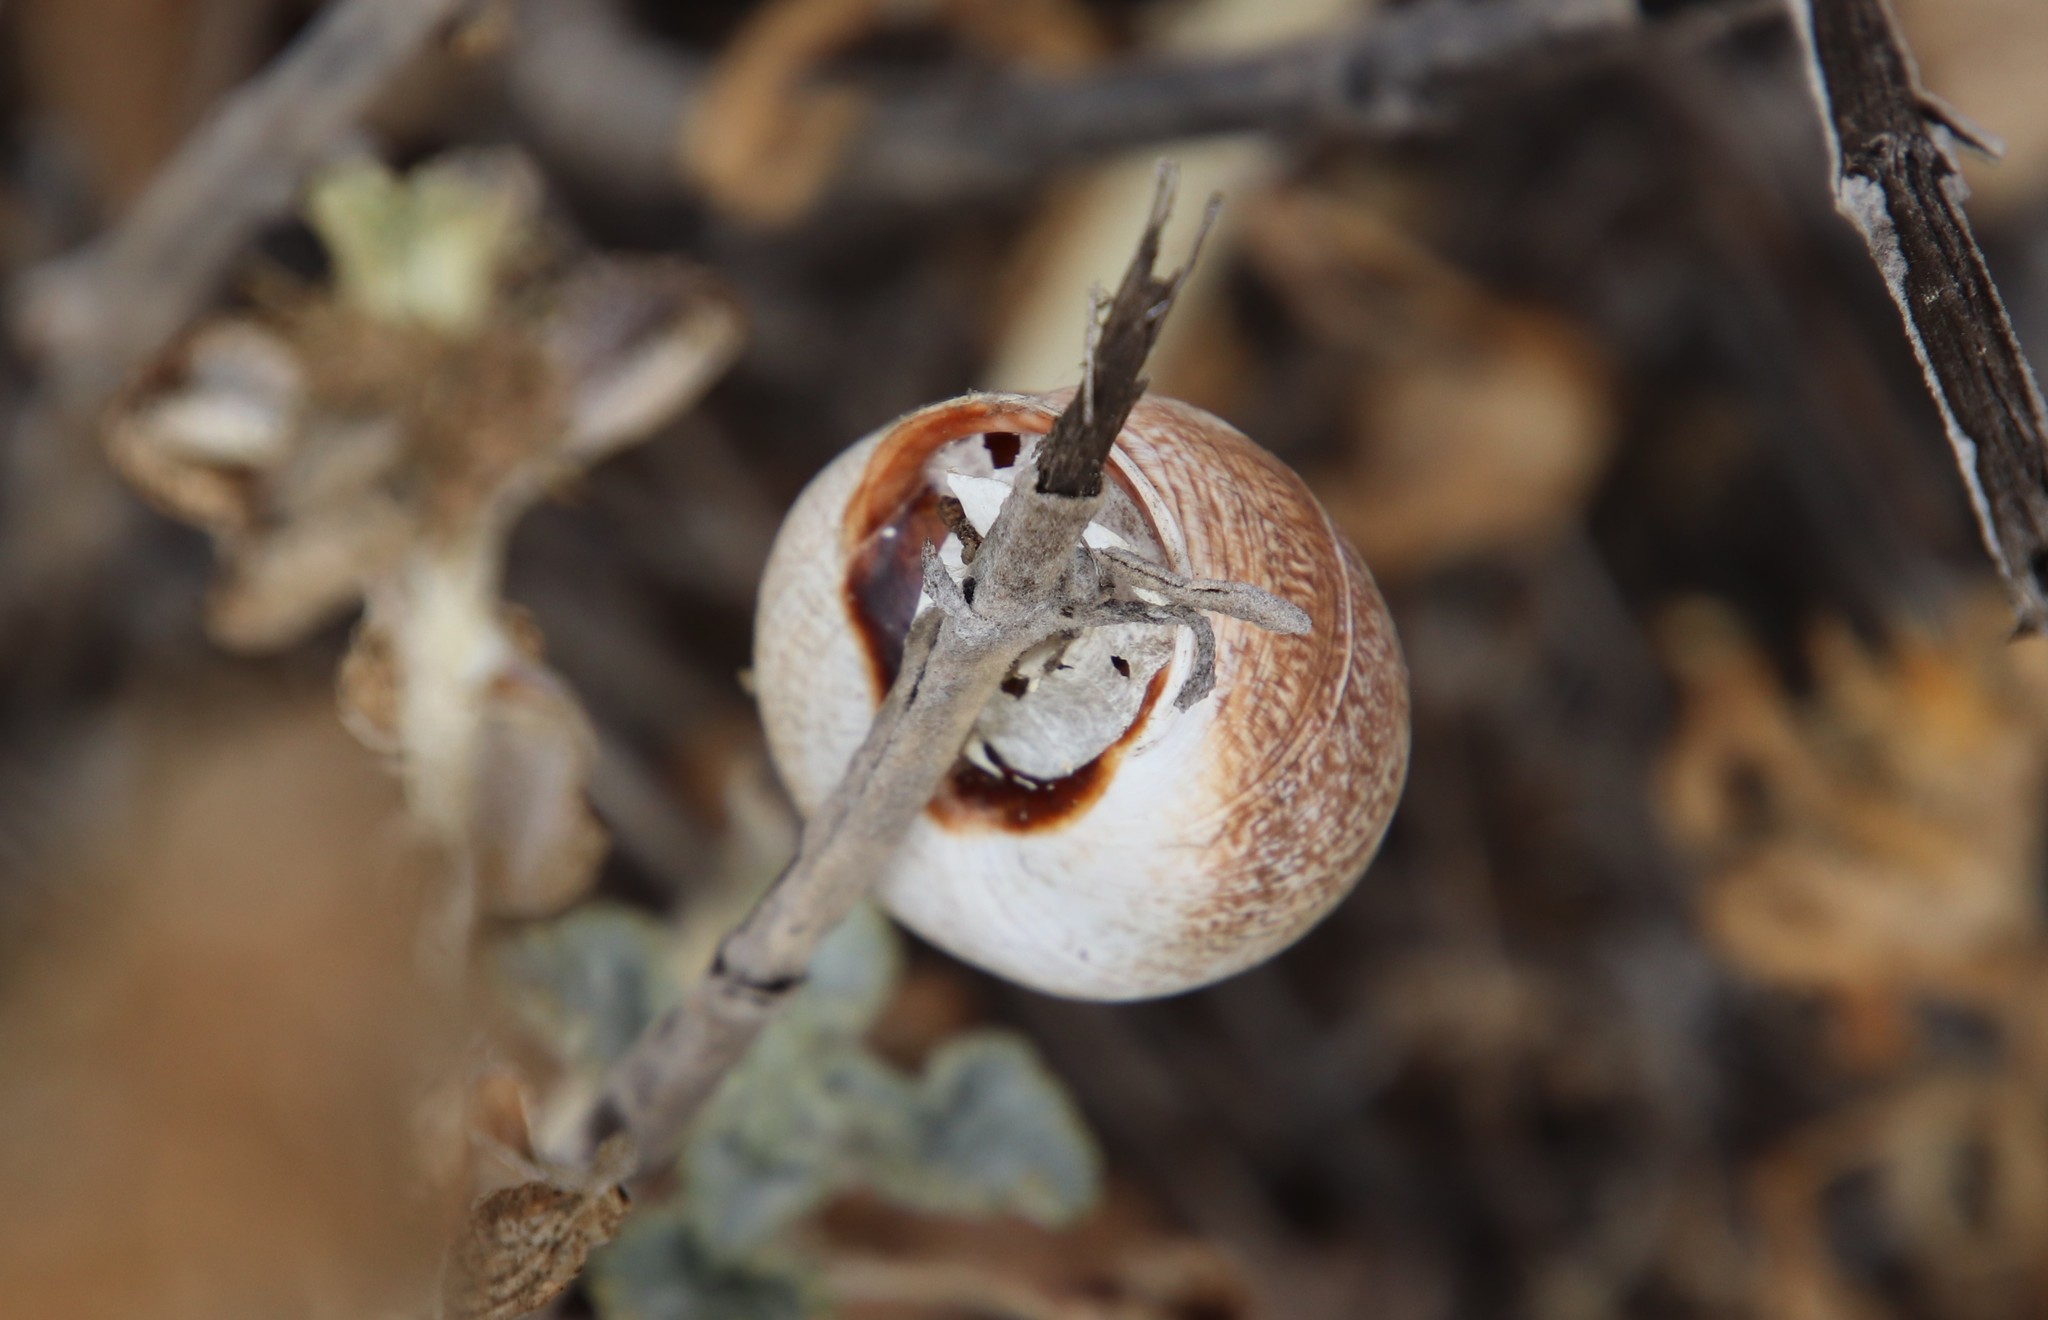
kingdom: Animalia
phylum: Mollusca
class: Gastropoda
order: Stylommatophora
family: Helicidae
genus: Otala
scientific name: Otala lactea
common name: Milk snail
